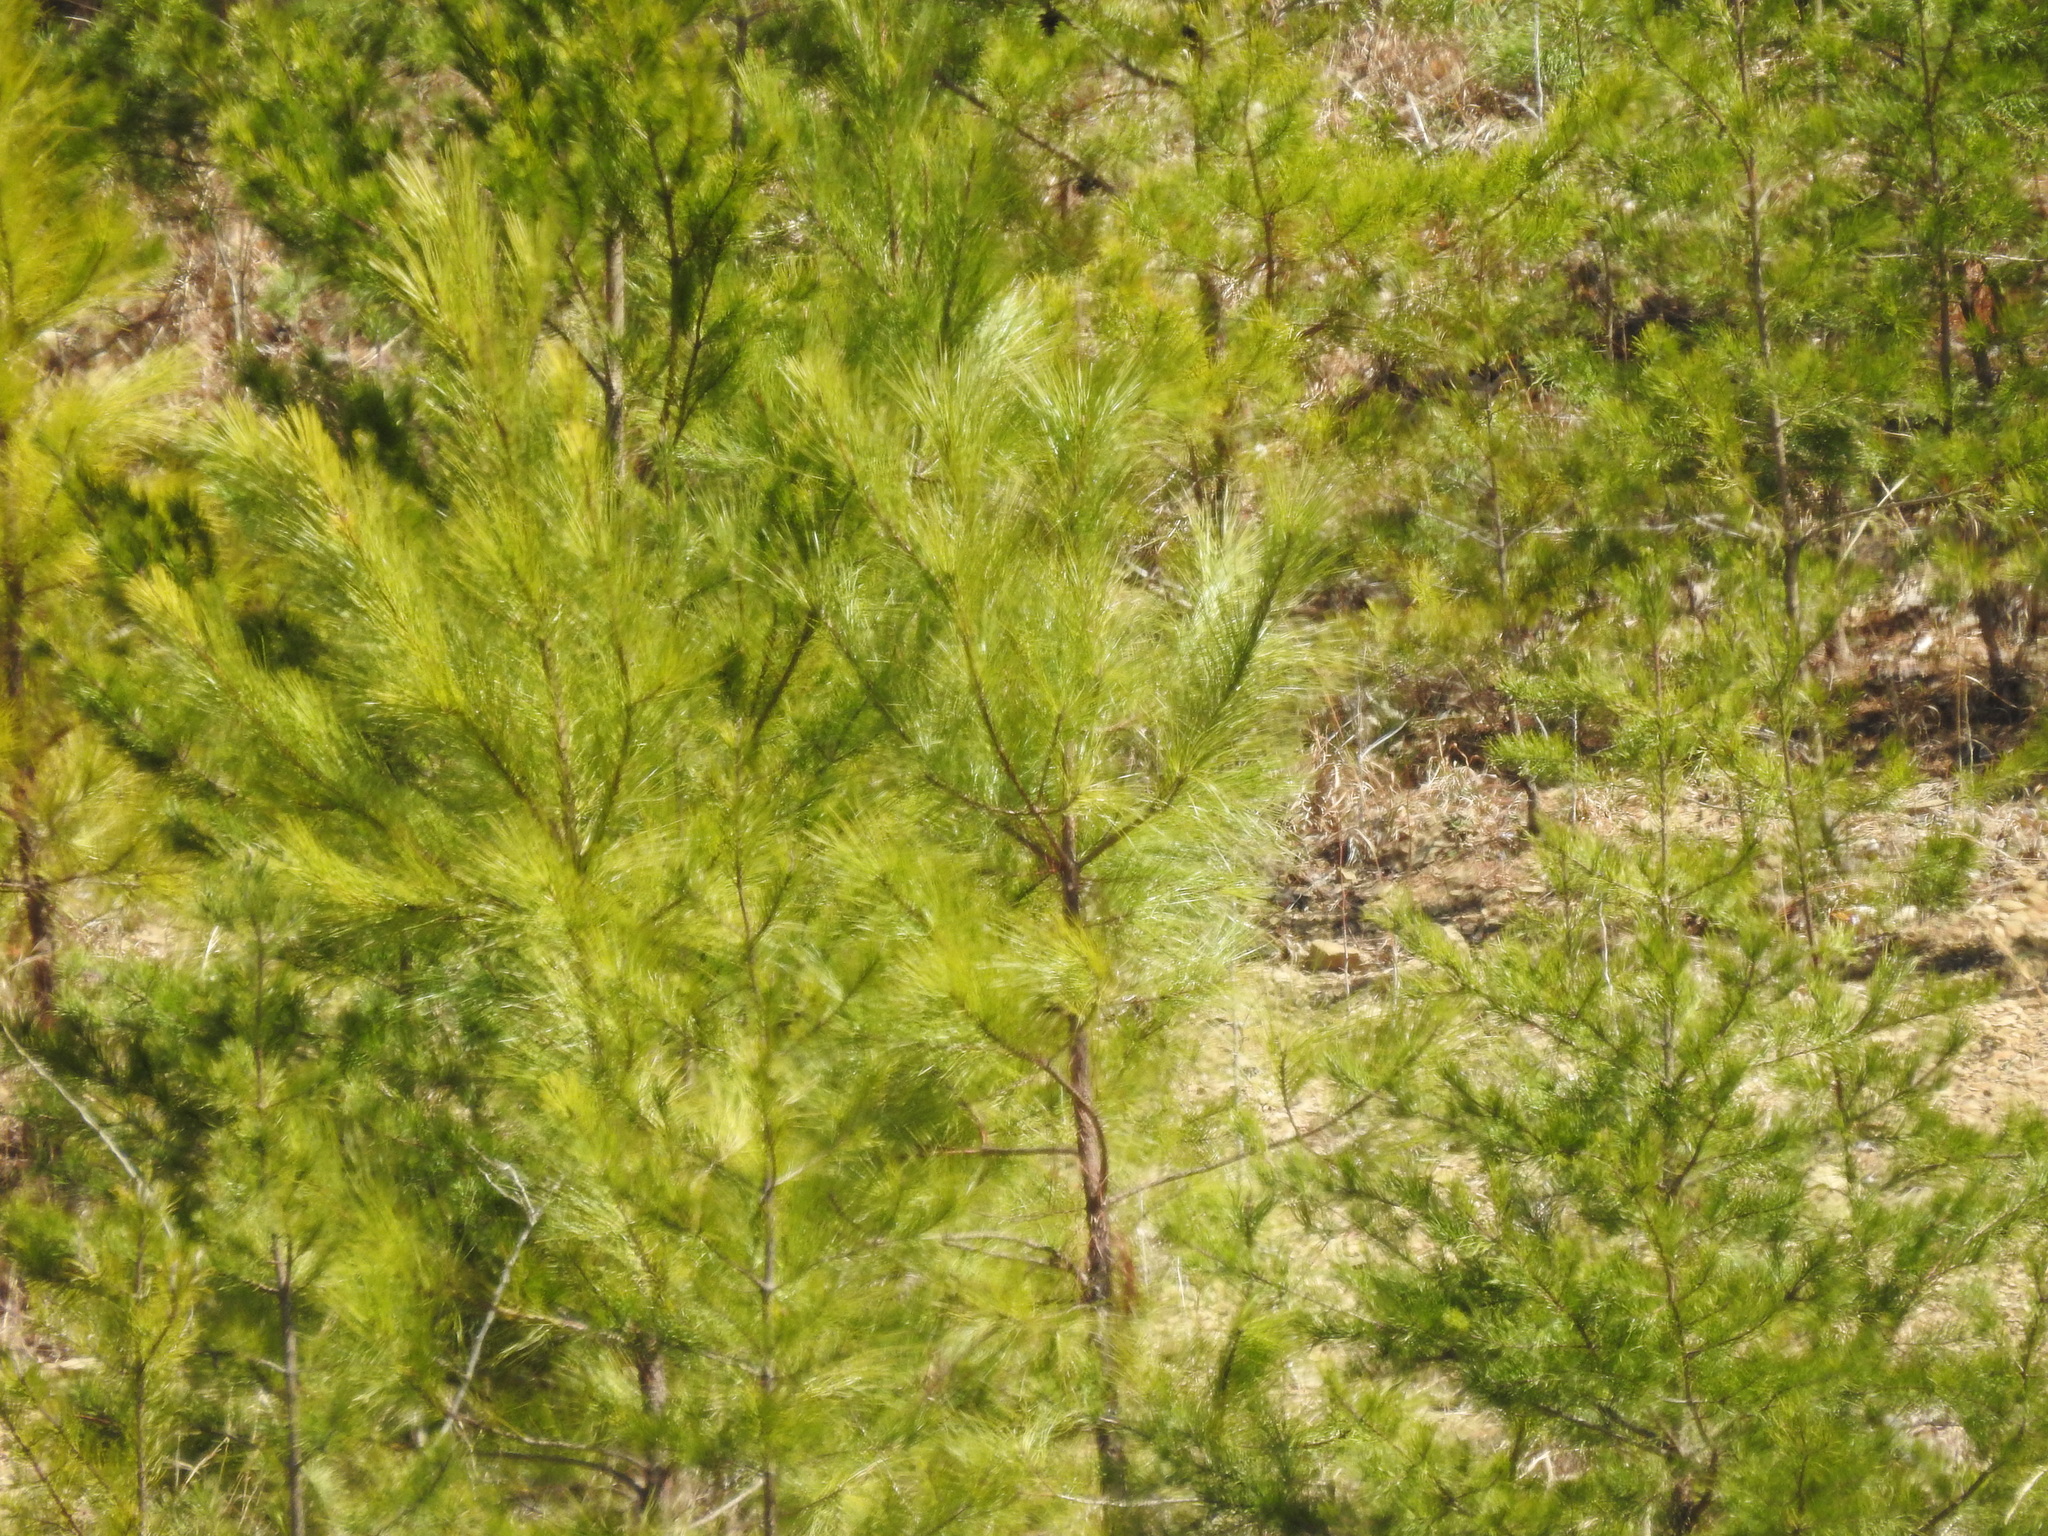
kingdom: Plantae
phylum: Tracheophyta
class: Pinopsida
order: Pinales
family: Pinaceae
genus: Pinus
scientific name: Pinus strobus
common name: Weymouth pine
